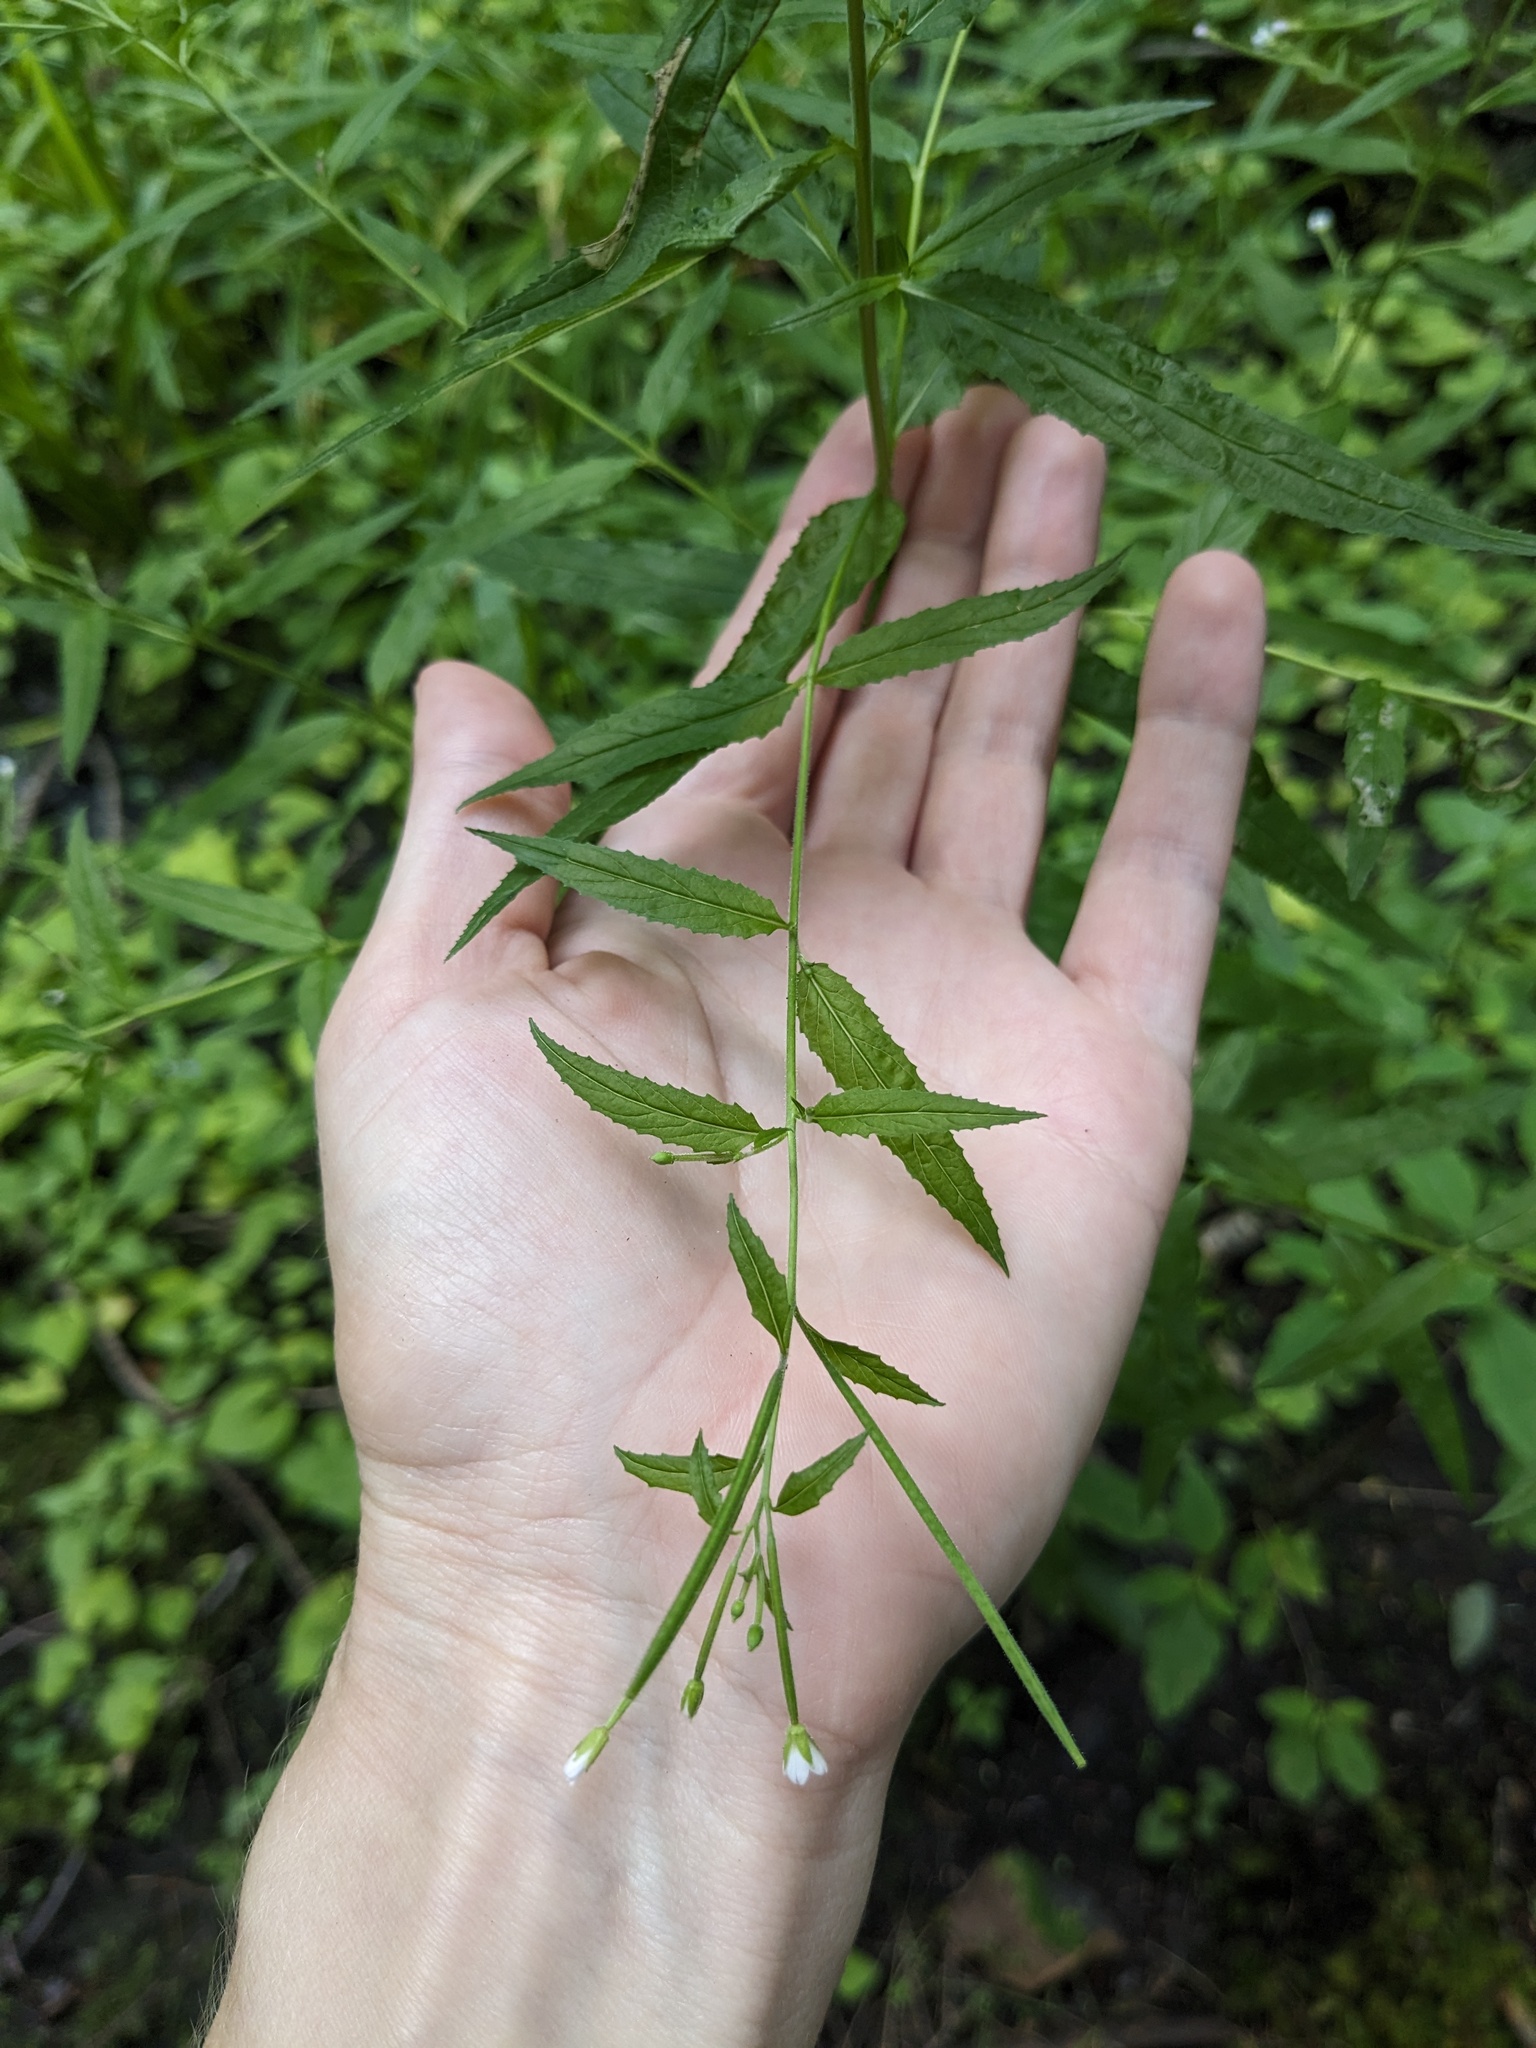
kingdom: Plantae
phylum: Tracheophyta
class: Magnoliopsida
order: Myrtales
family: Onagraceae
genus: Epilobium
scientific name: Epilobium coloratum
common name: Bronze willowherb
